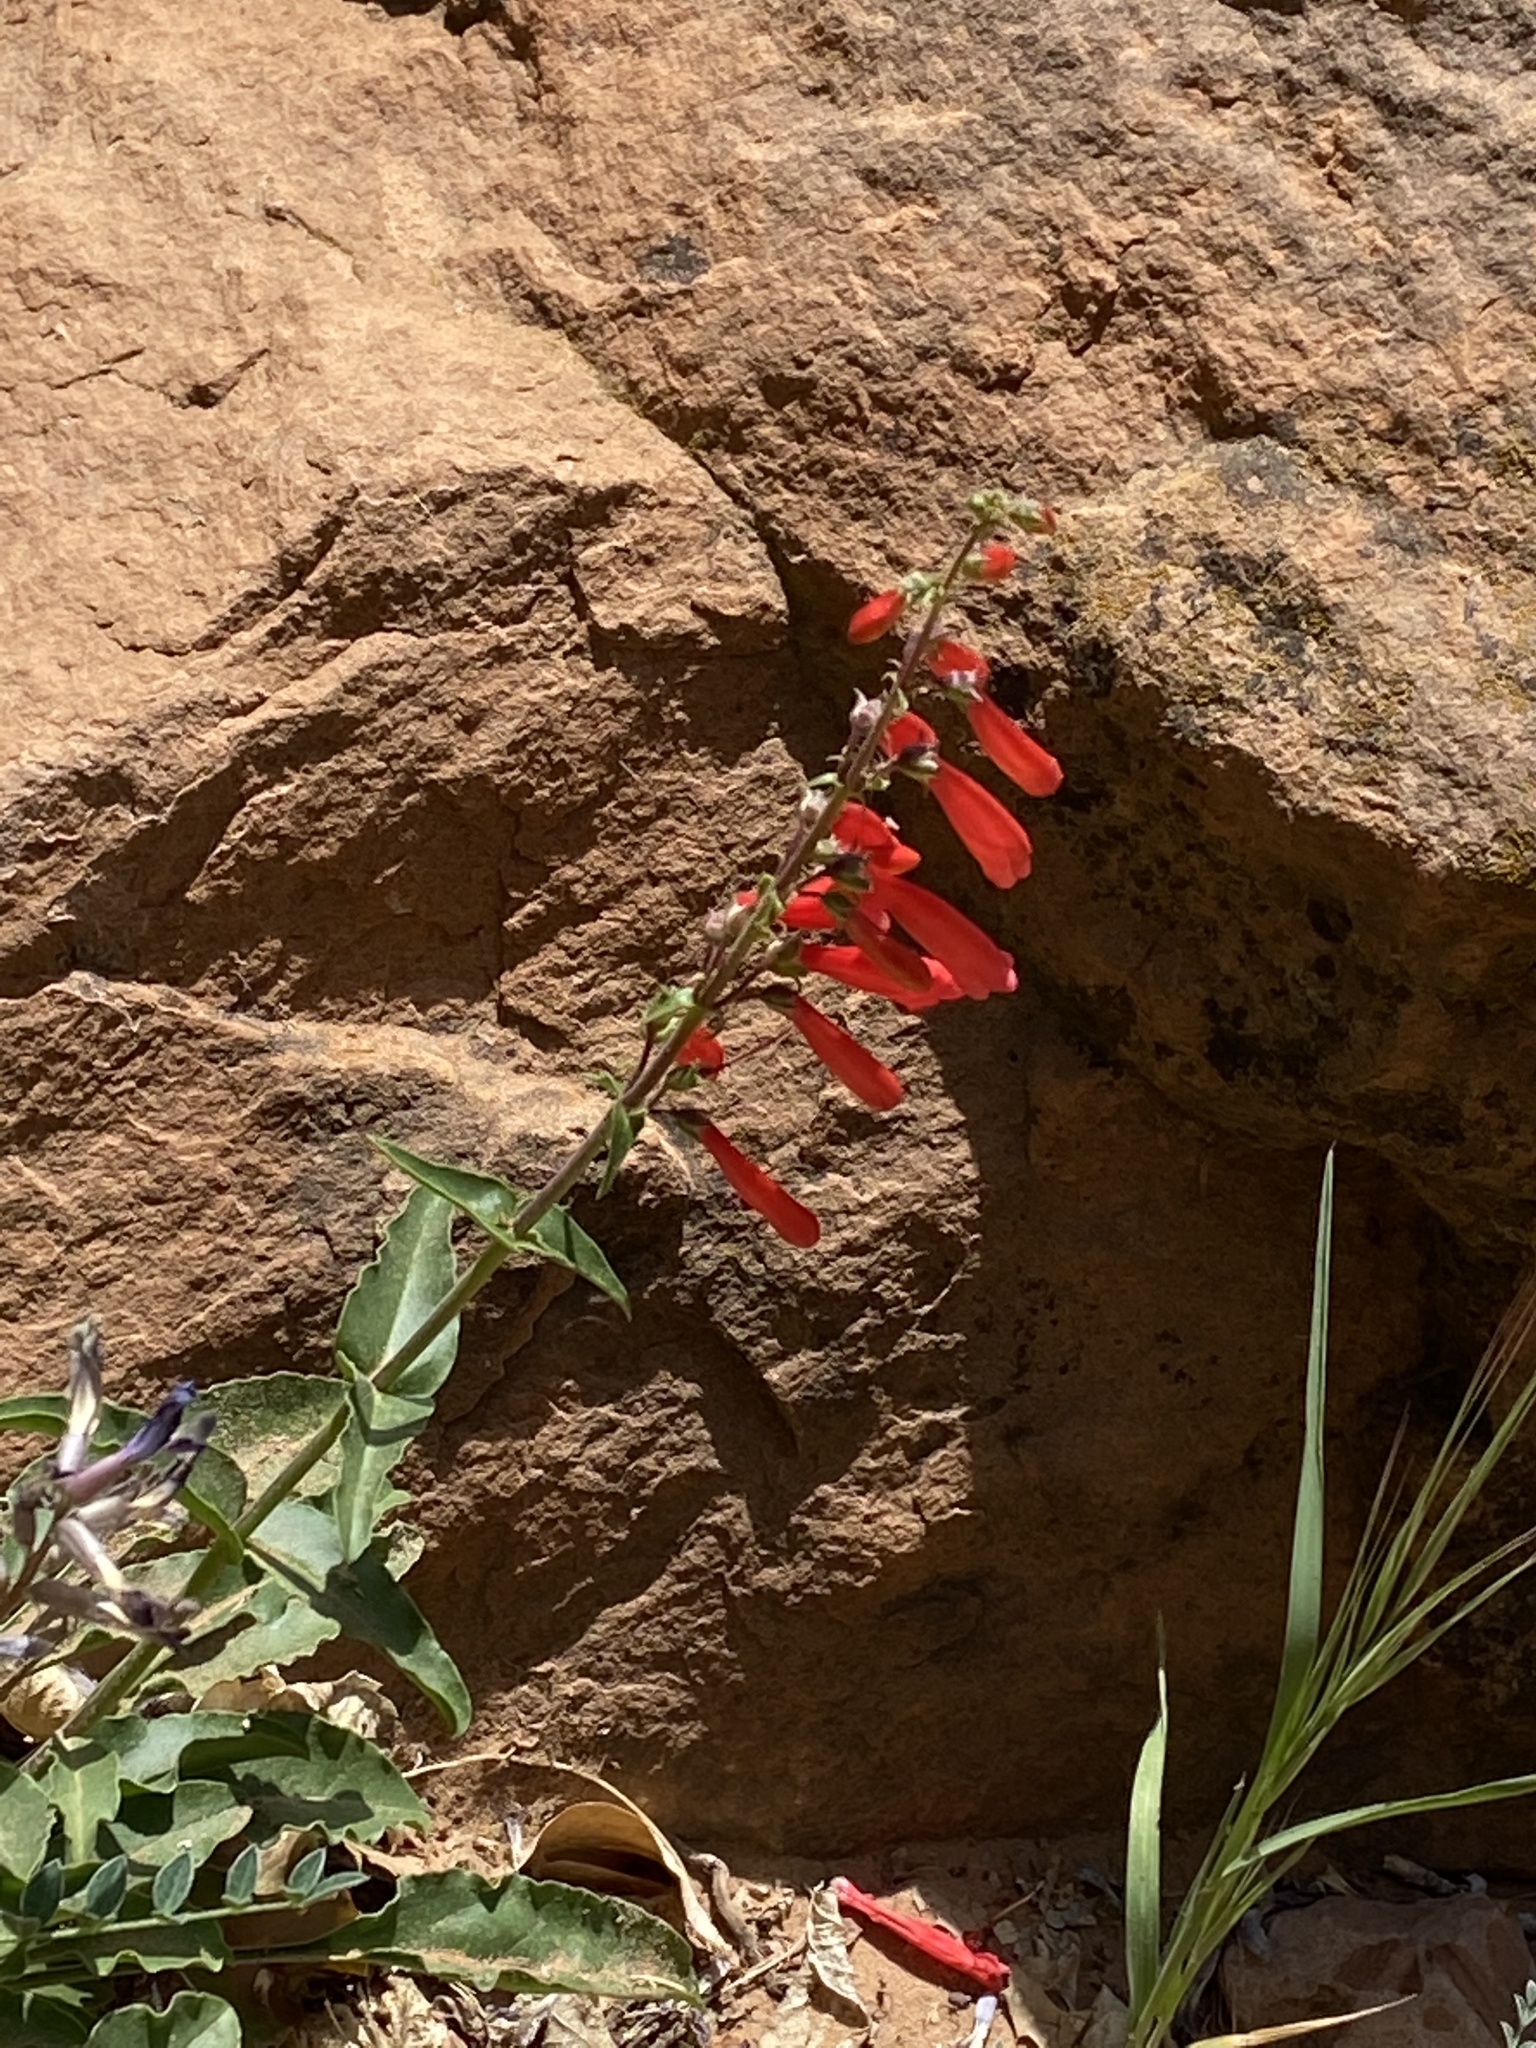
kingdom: Plantae
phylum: Tracheophyta
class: Magnoliopsida
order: Lamiales
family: Plantaginaceae
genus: Penstemon
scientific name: Penstemon eatonii
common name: Eaton's penstemon
